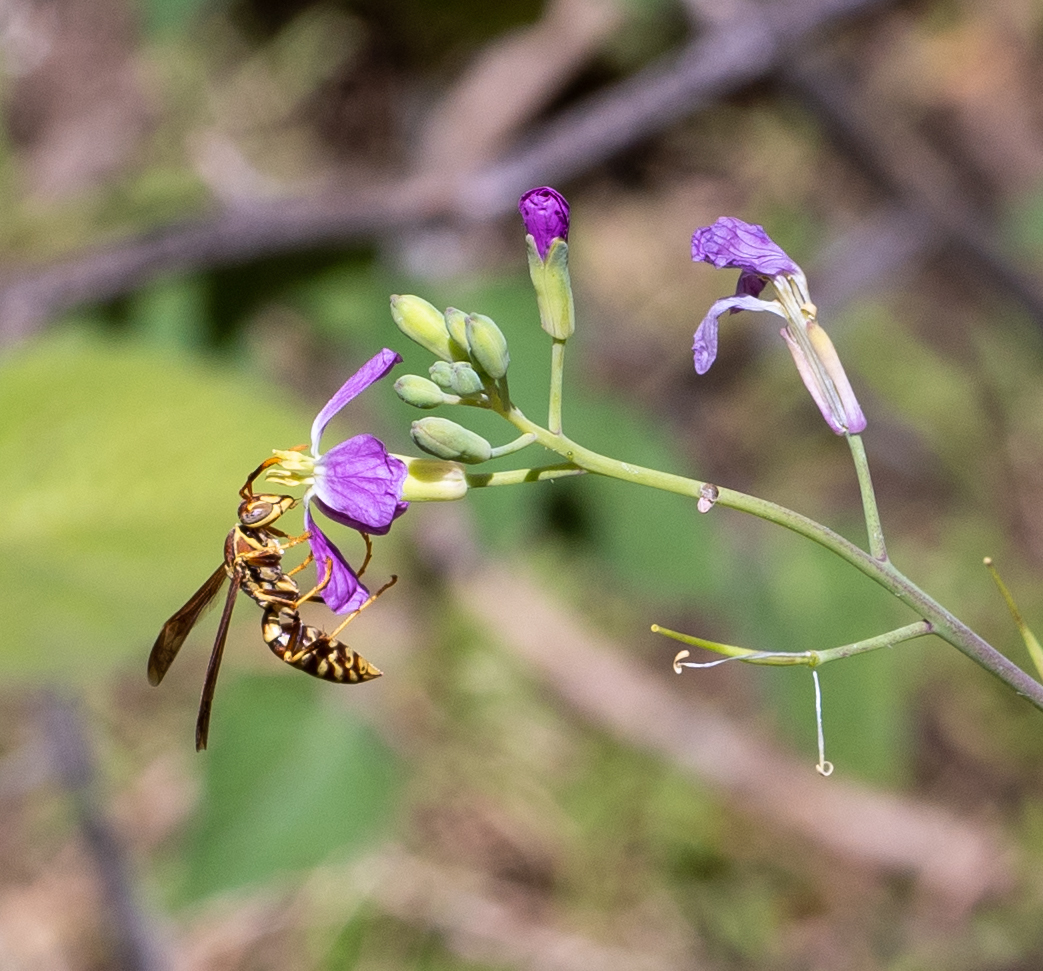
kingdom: Animalia
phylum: Arthropoda
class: Insecta
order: Hymenoptera
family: Eumenidae
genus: Polistes
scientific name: Polistes exclamans
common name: Paper wasp
